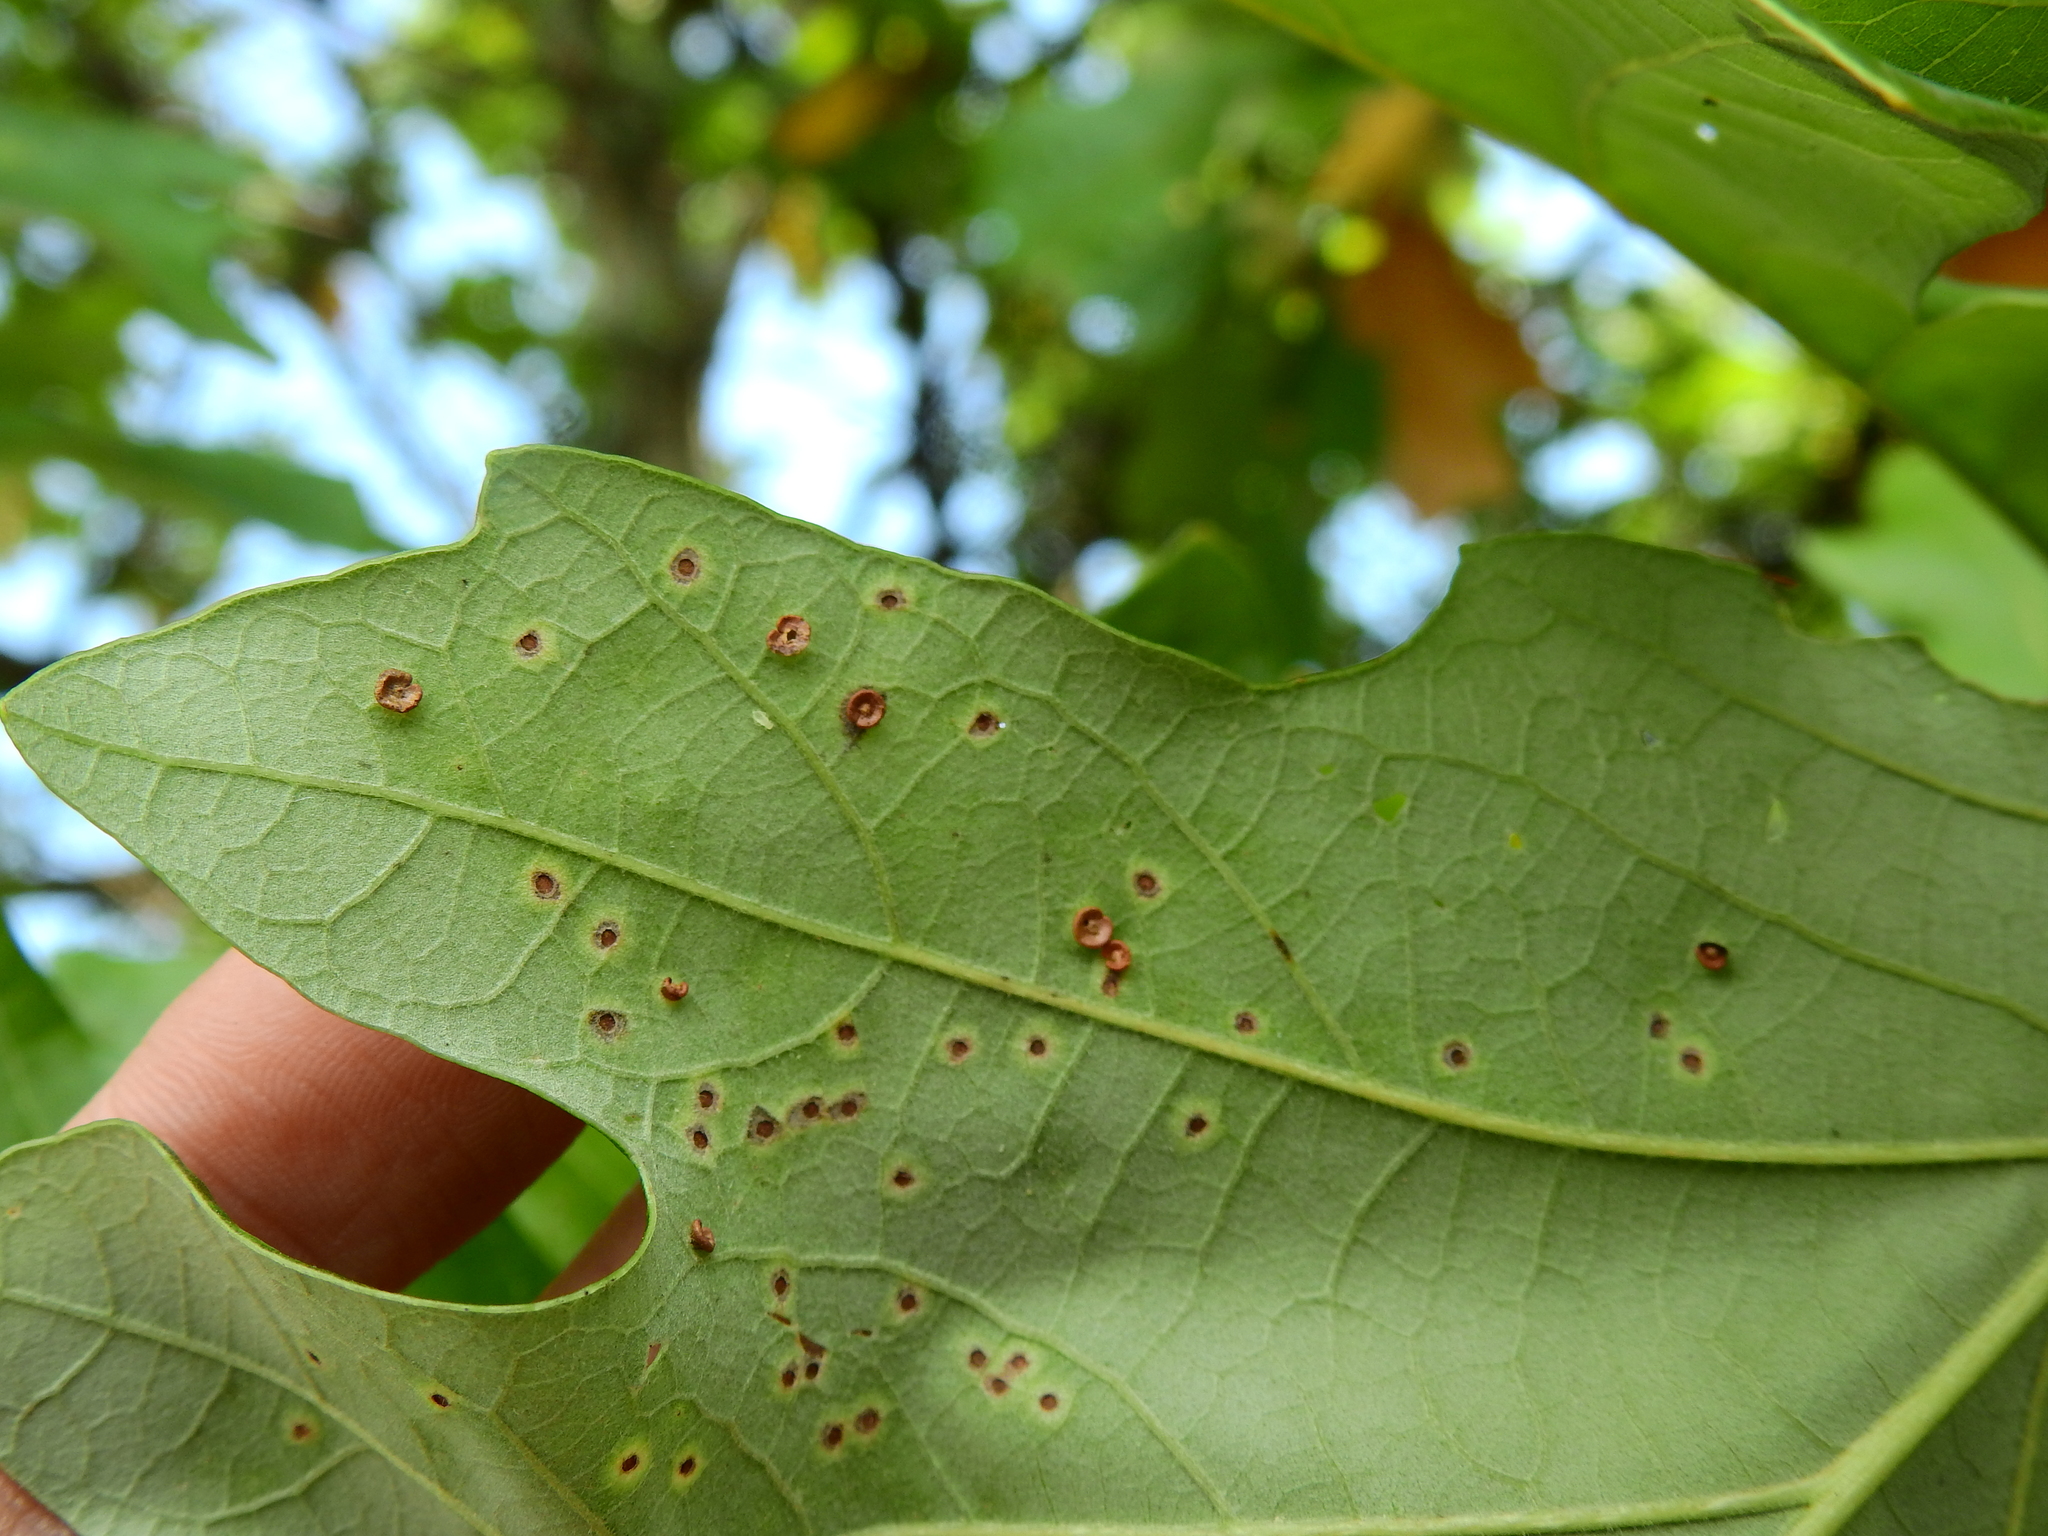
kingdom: Animalia
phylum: Arthropoda
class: Insecta
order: Hymenoptera
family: Cynipidae
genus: Neuroterus
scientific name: Neuroterus saltarius
